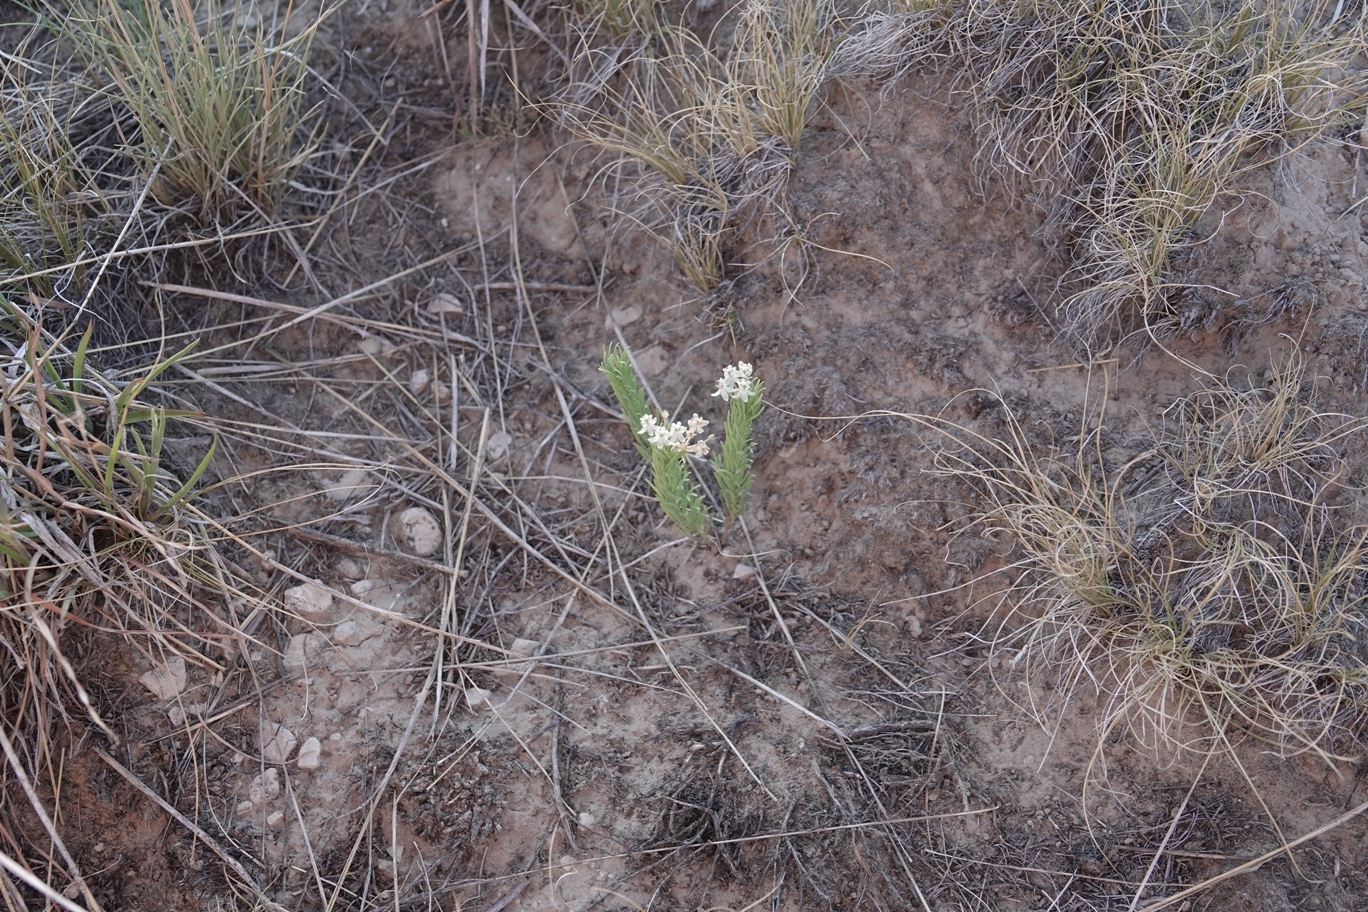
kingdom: Plantae
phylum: Tracheophyta
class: Magnoliopsida
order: Gentianales
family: Apocynaceae
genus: Asclepias
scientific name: Asclepias pumila
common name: Dwarf milkweed
